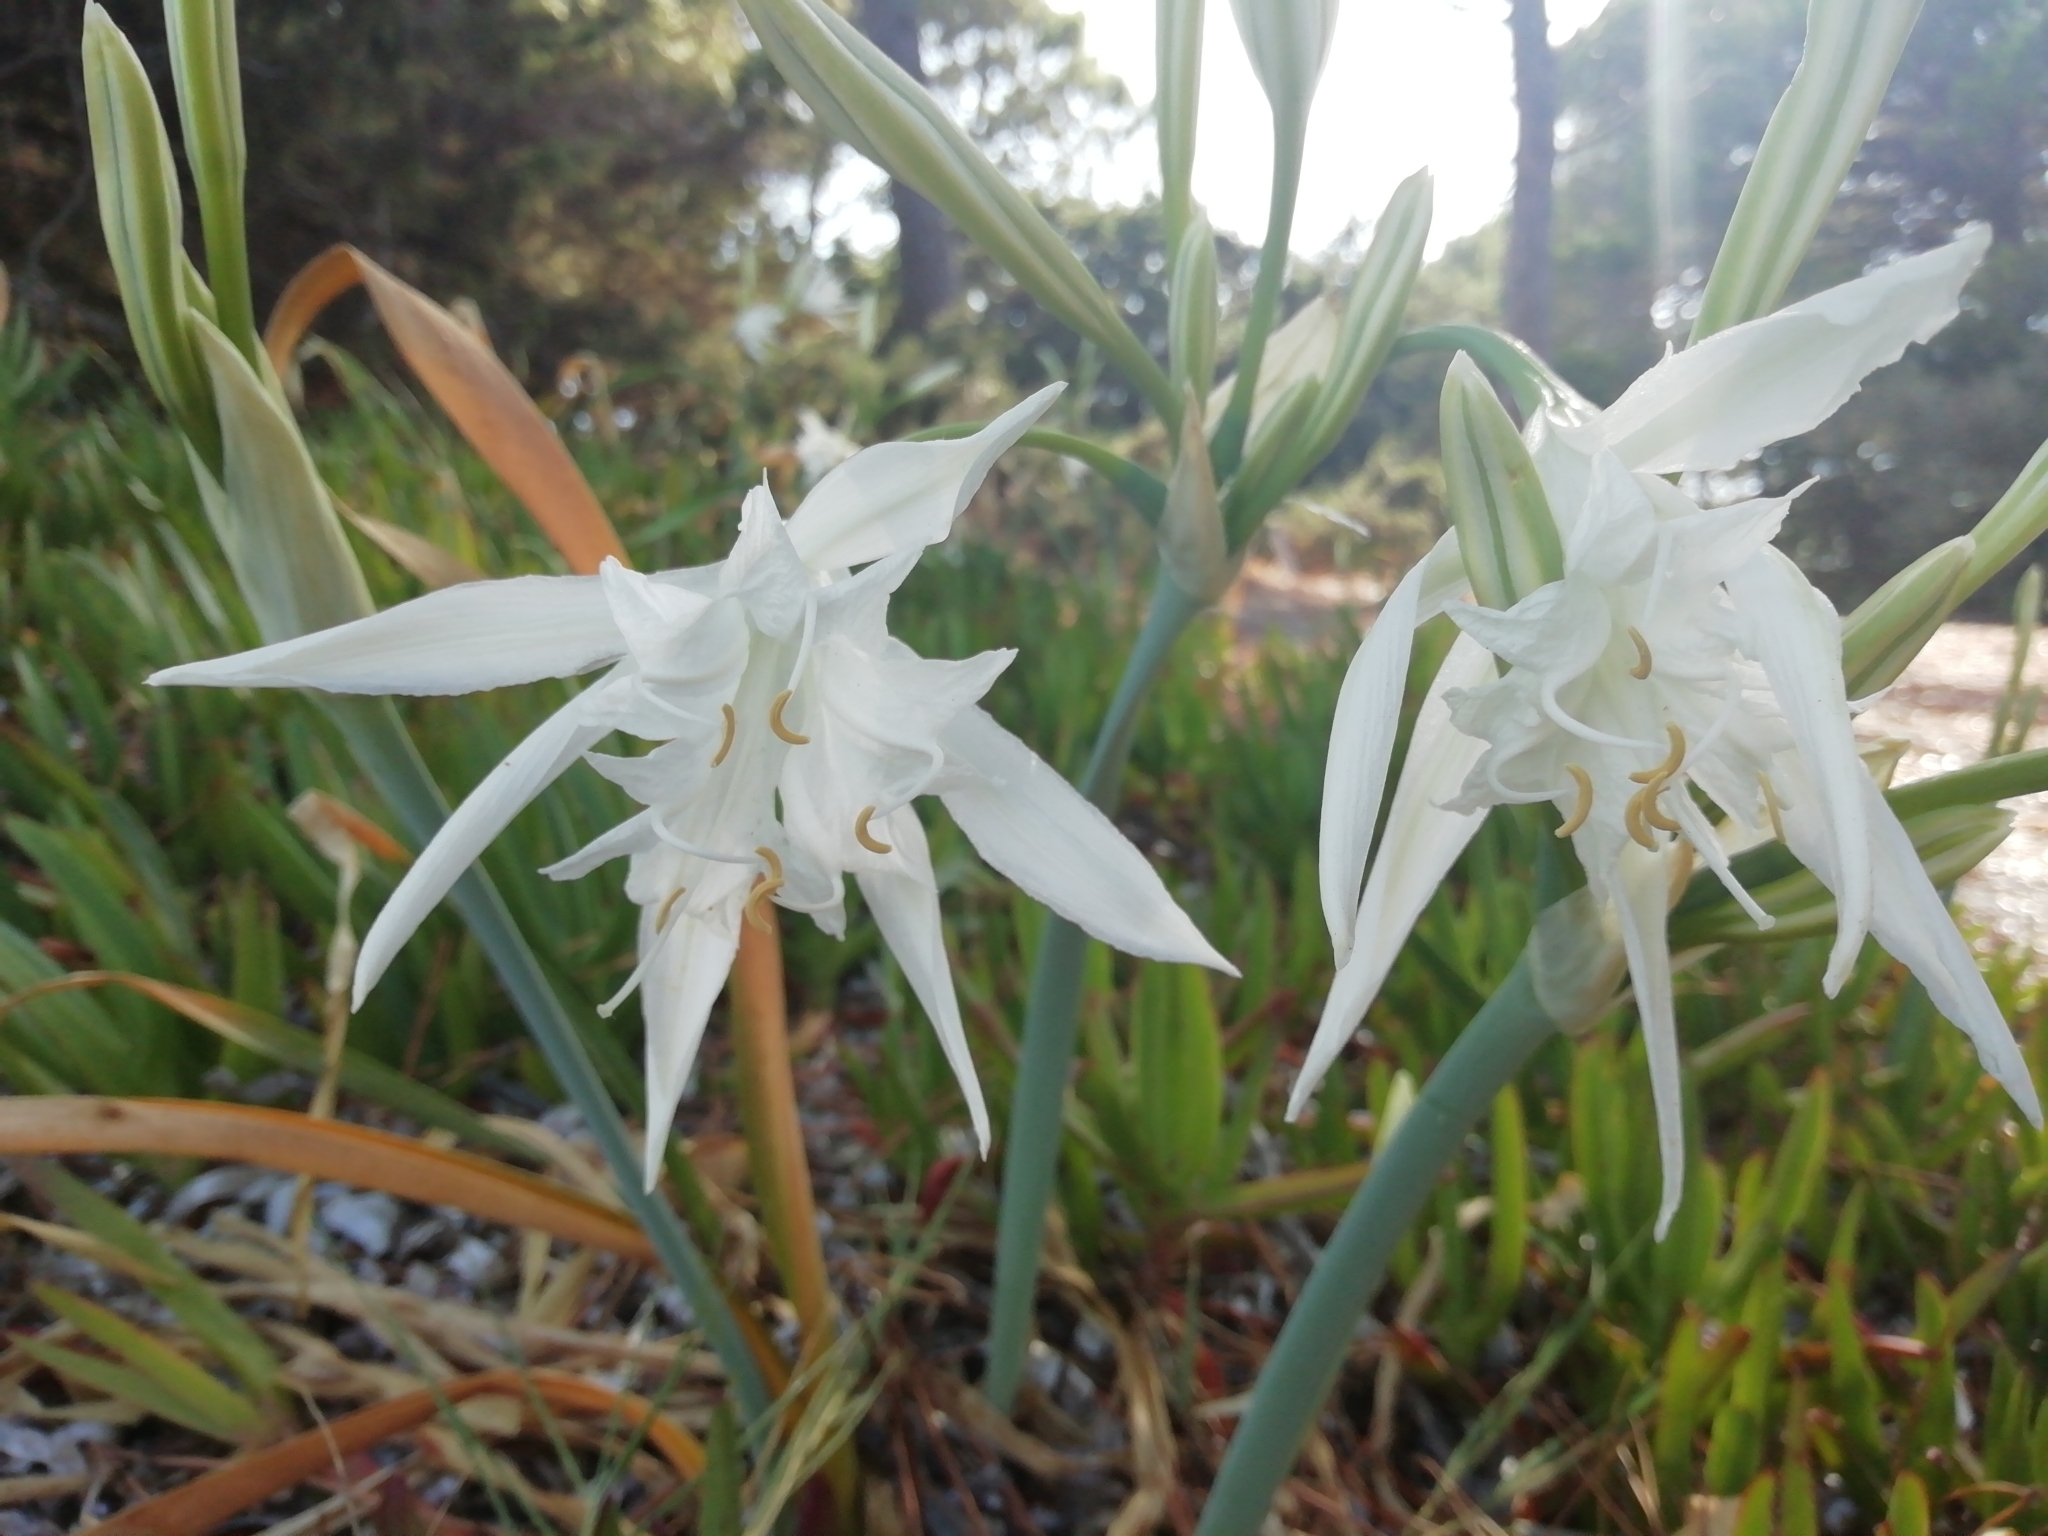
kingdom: Plantae
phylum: Tracheophyta
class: Liliopsida
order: Asparagales
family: Amaryllidaceae
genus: Pancratium
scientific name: Pancratium maritimum
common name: Sea-daffodil
